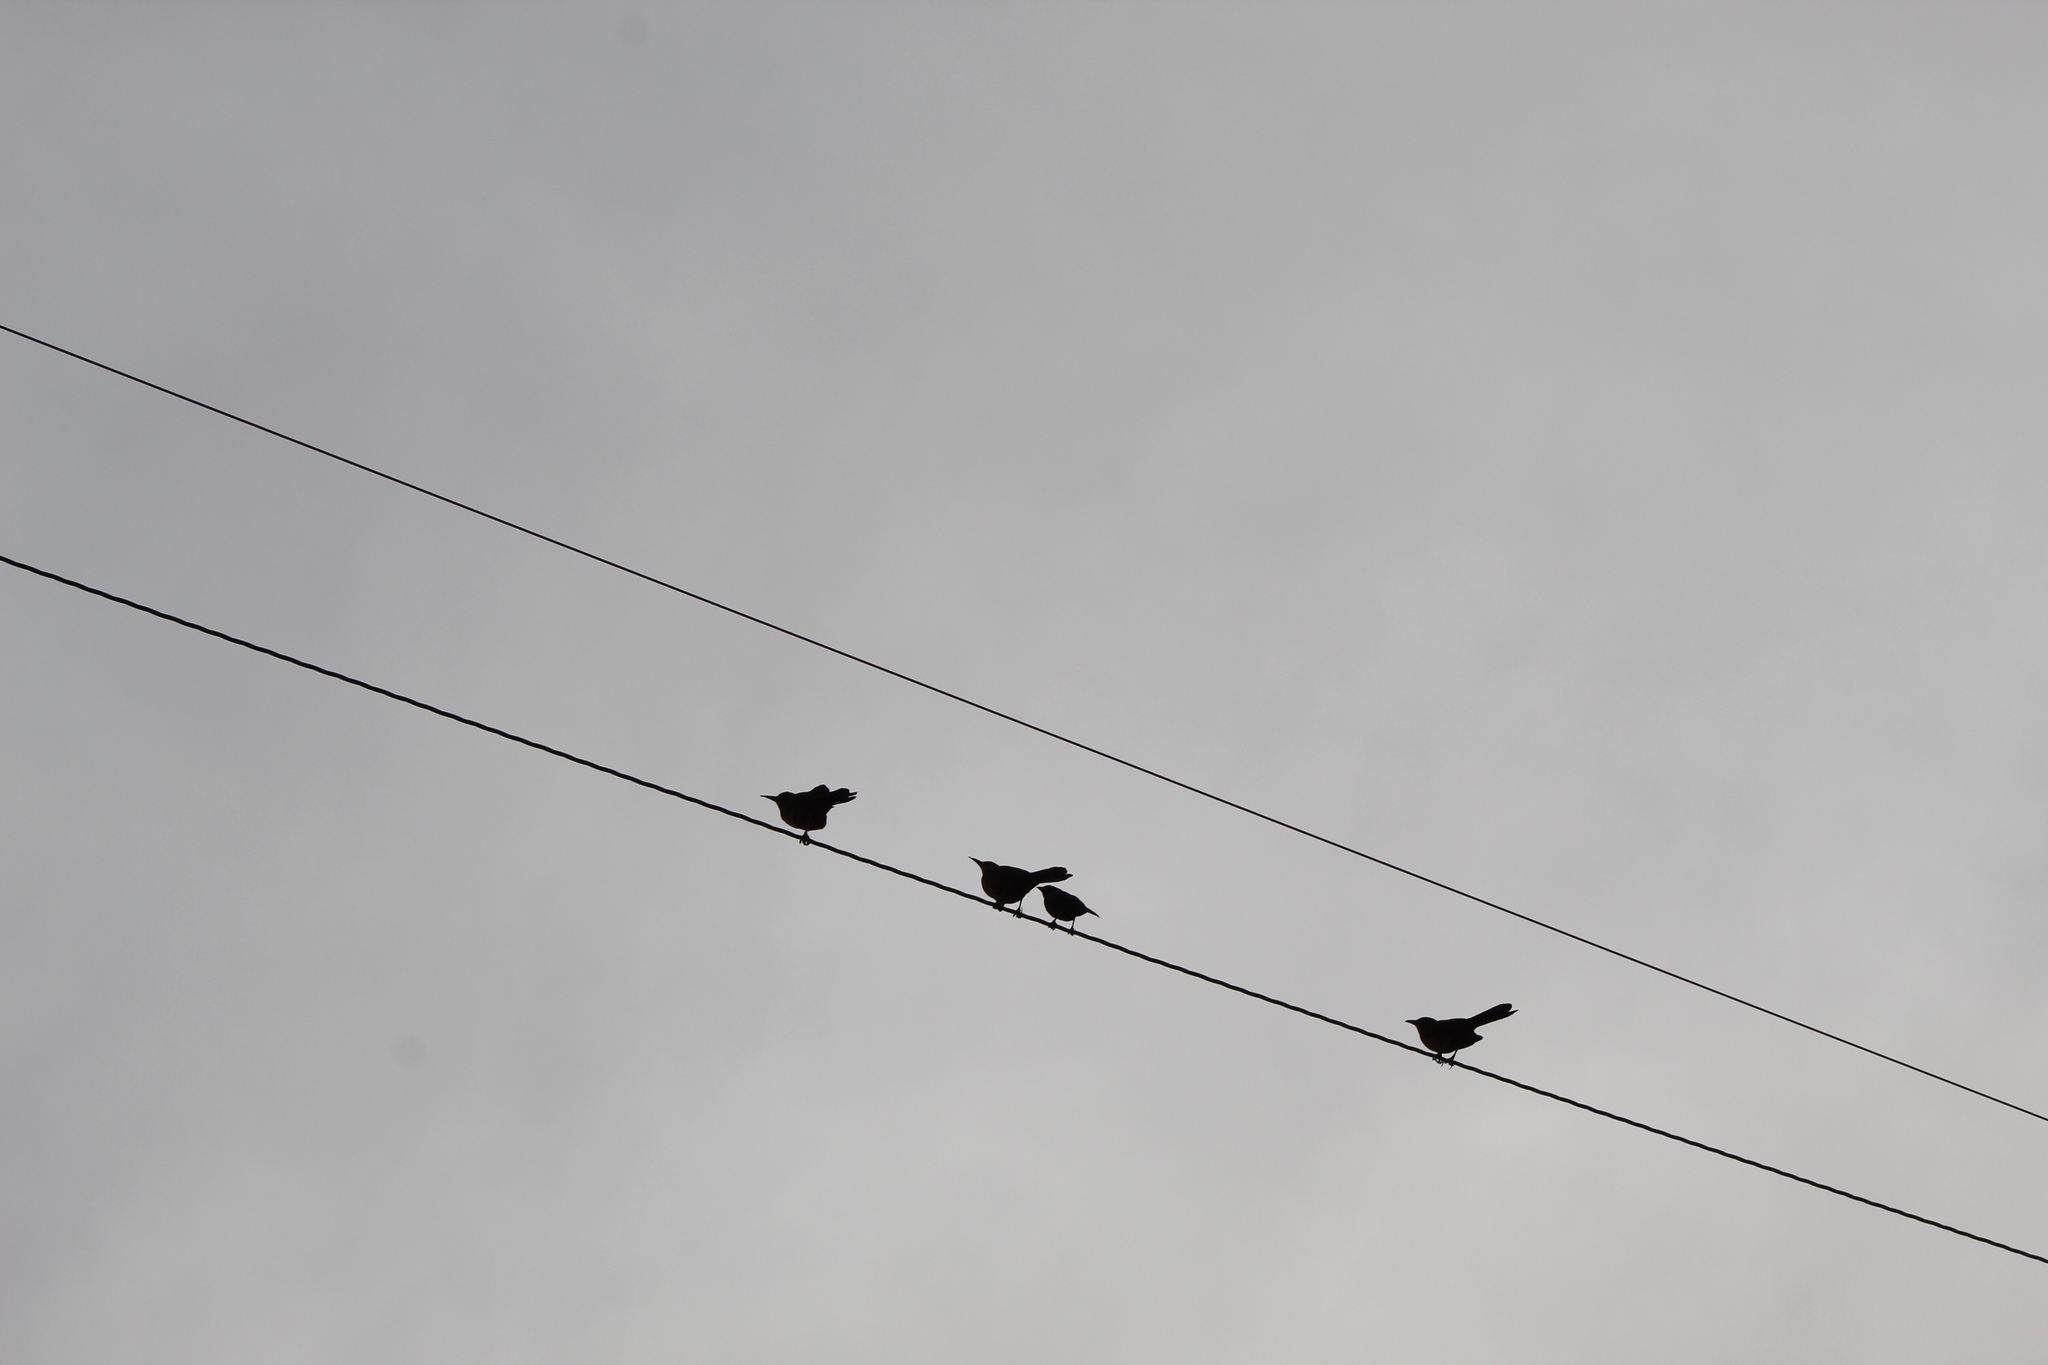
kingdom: Animalia
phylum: Chordata
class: Aves
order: Passeriformes
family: Icteridae
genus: Quiscalus
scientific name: Quiscalus mexicanus
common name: Great-tailed grackle
